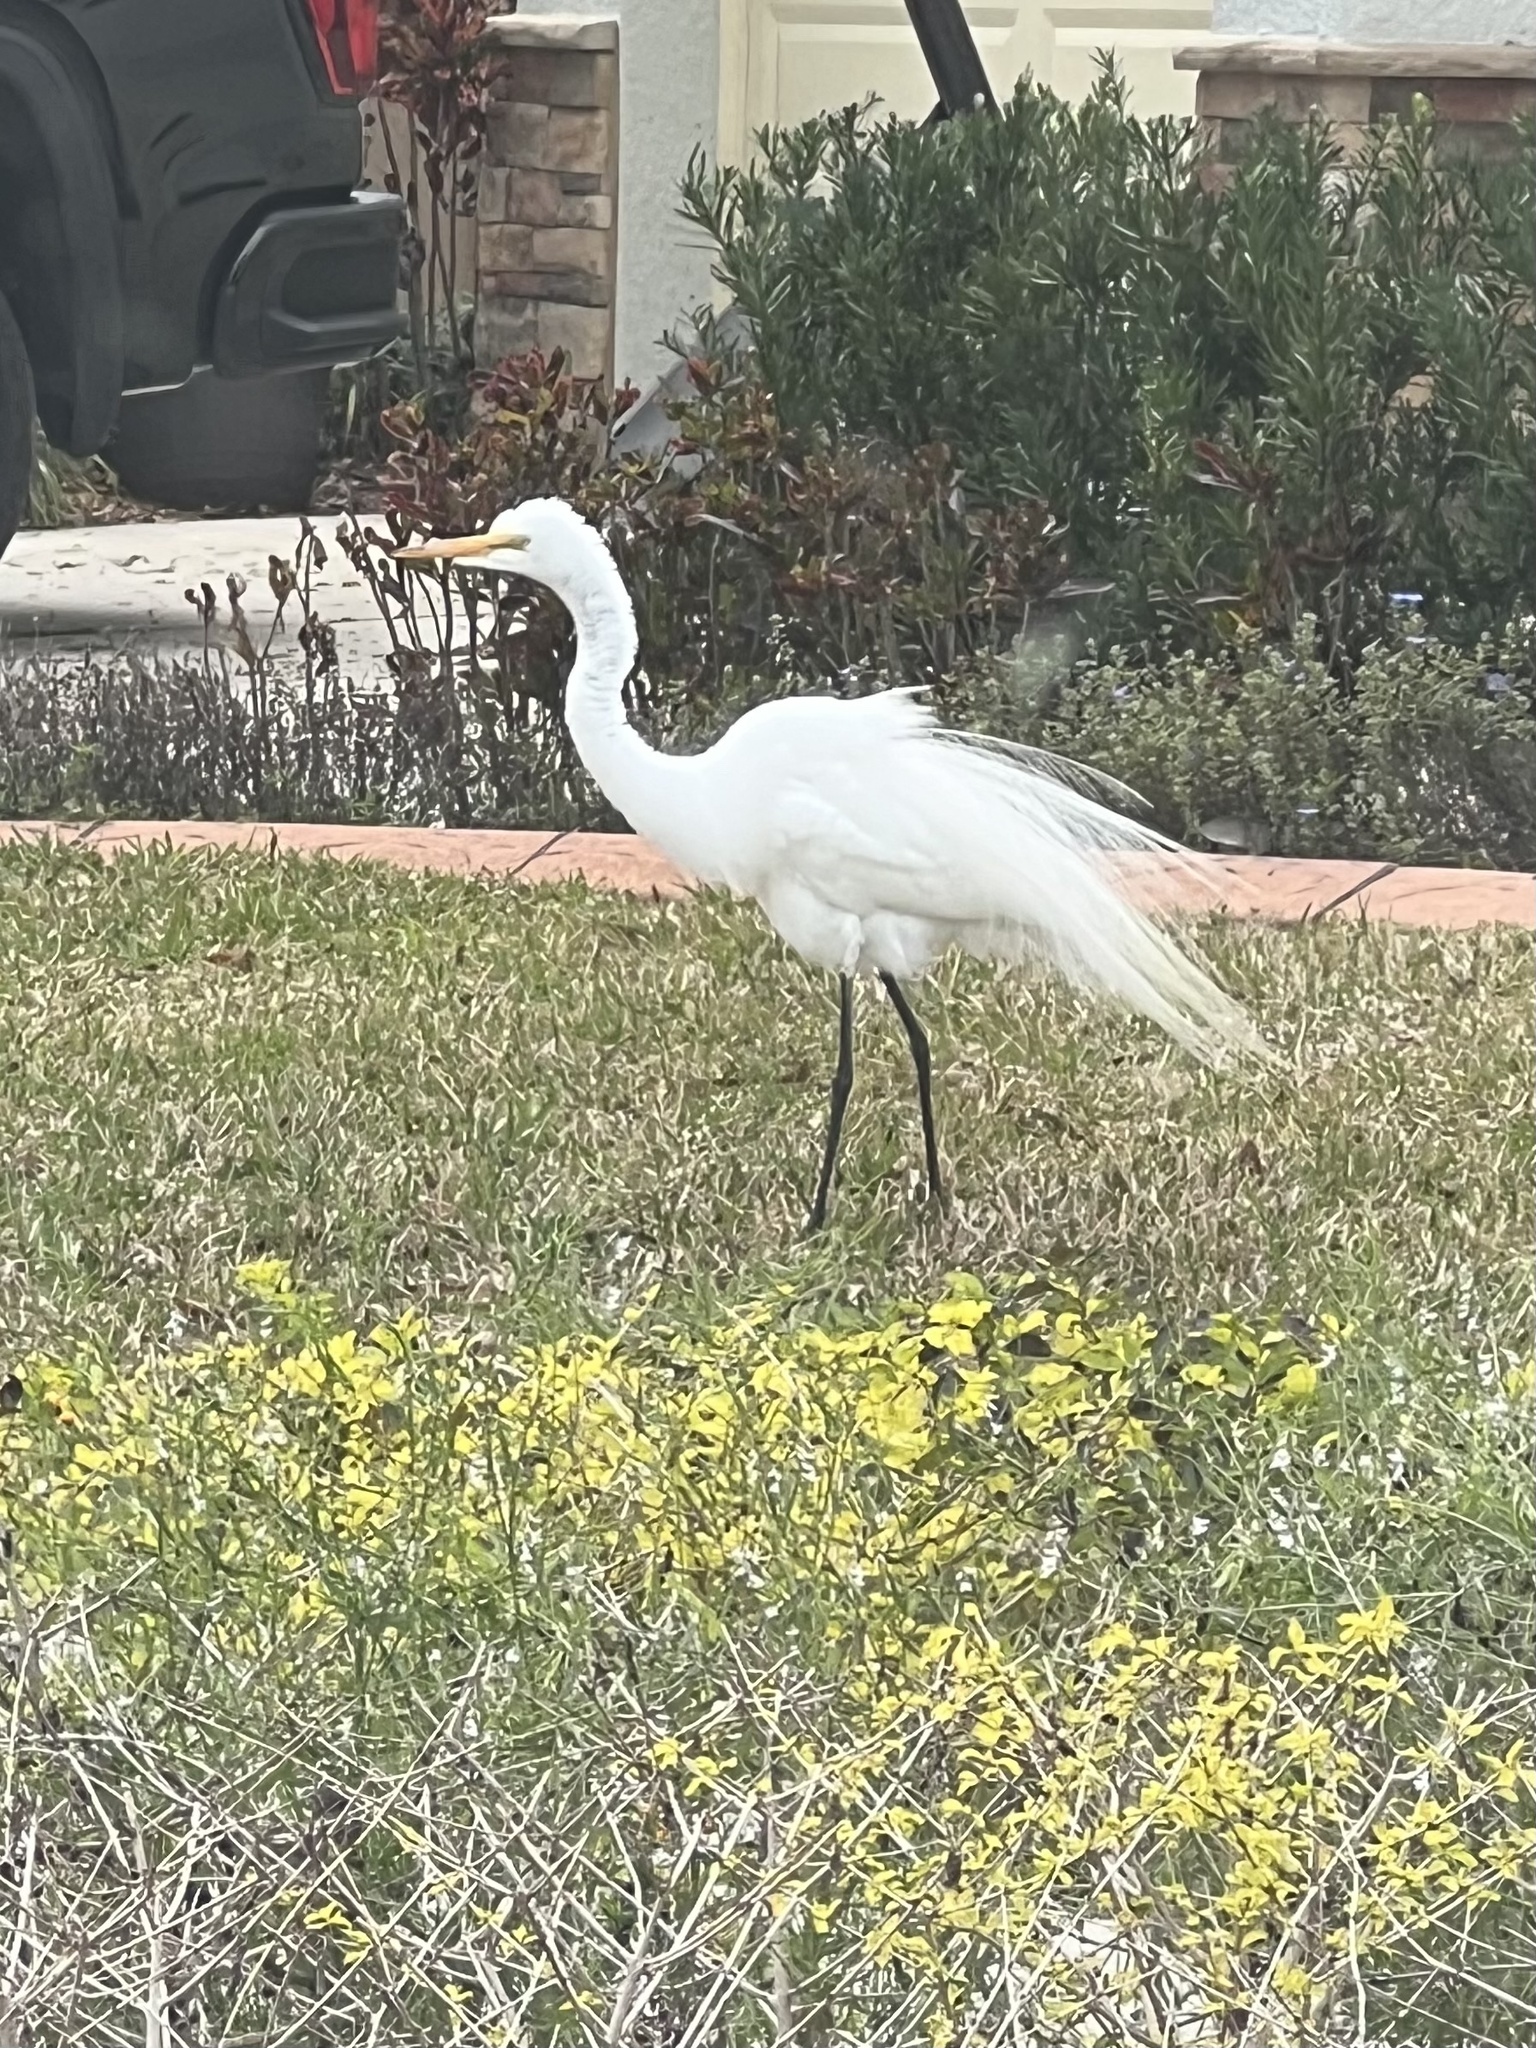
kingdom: Animalia
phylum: Chordata
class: Aves
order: Pelecaniformes
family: Ardeidae
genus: Ardea
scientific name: Ardea alba
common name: Great egret
